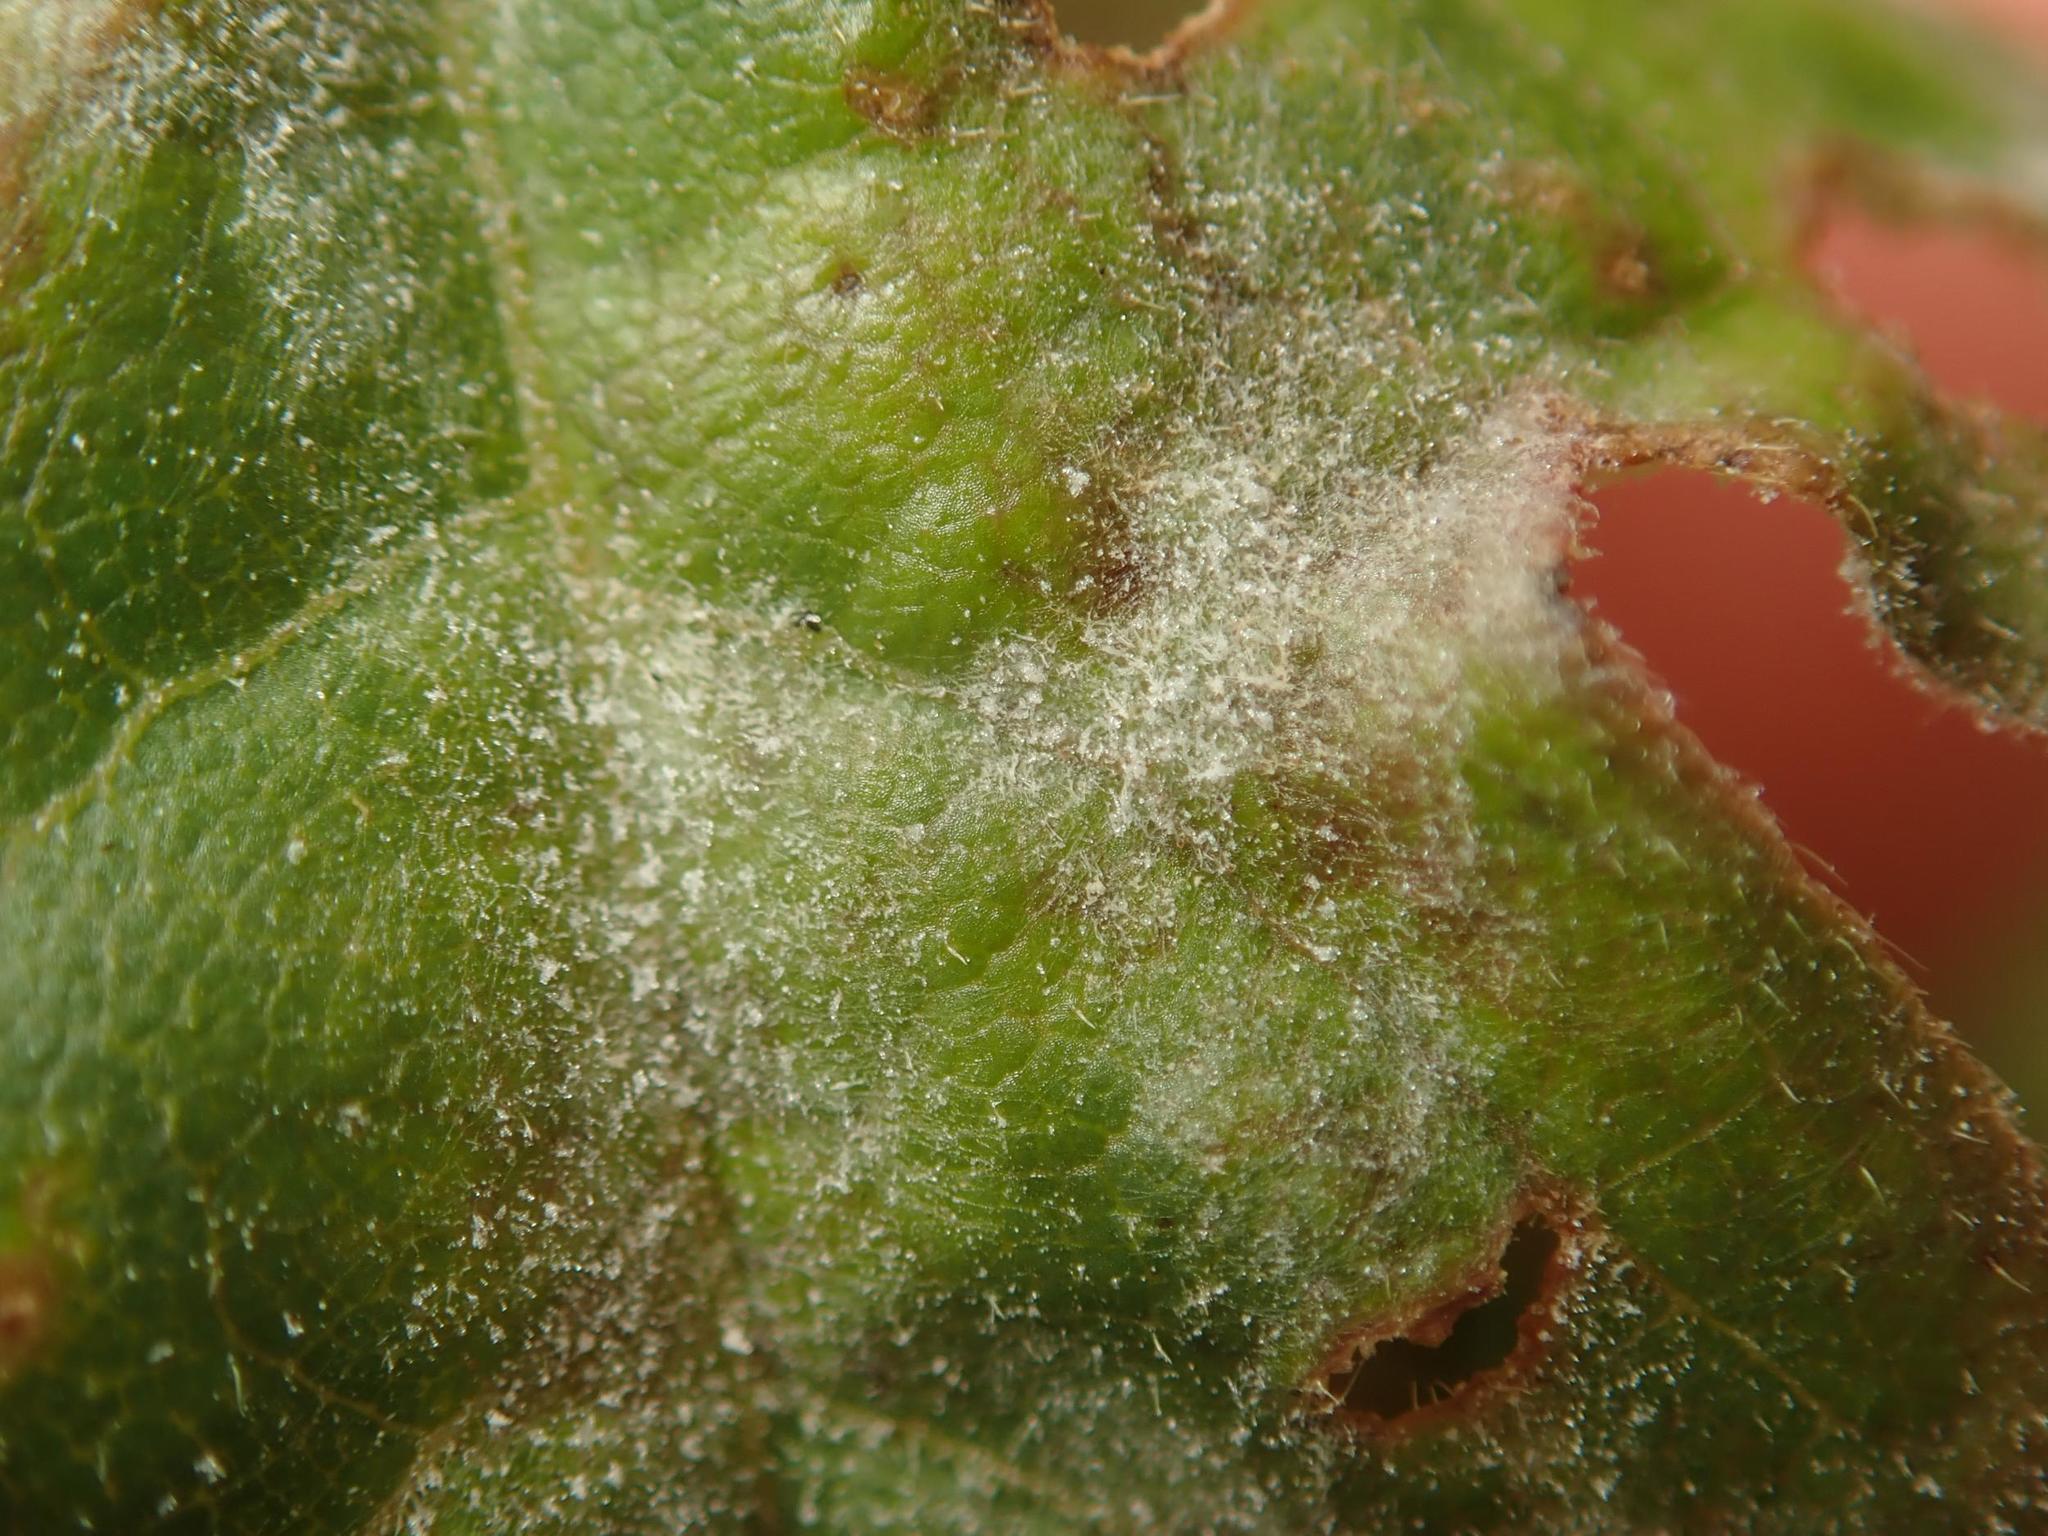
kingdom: Fungi
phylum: Ascomycota
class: Leotiomycetes
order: Helotiales
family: Erysiphaceae
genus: Sawadaea
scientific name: Sawadaea bicornis
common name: Maple mildew
